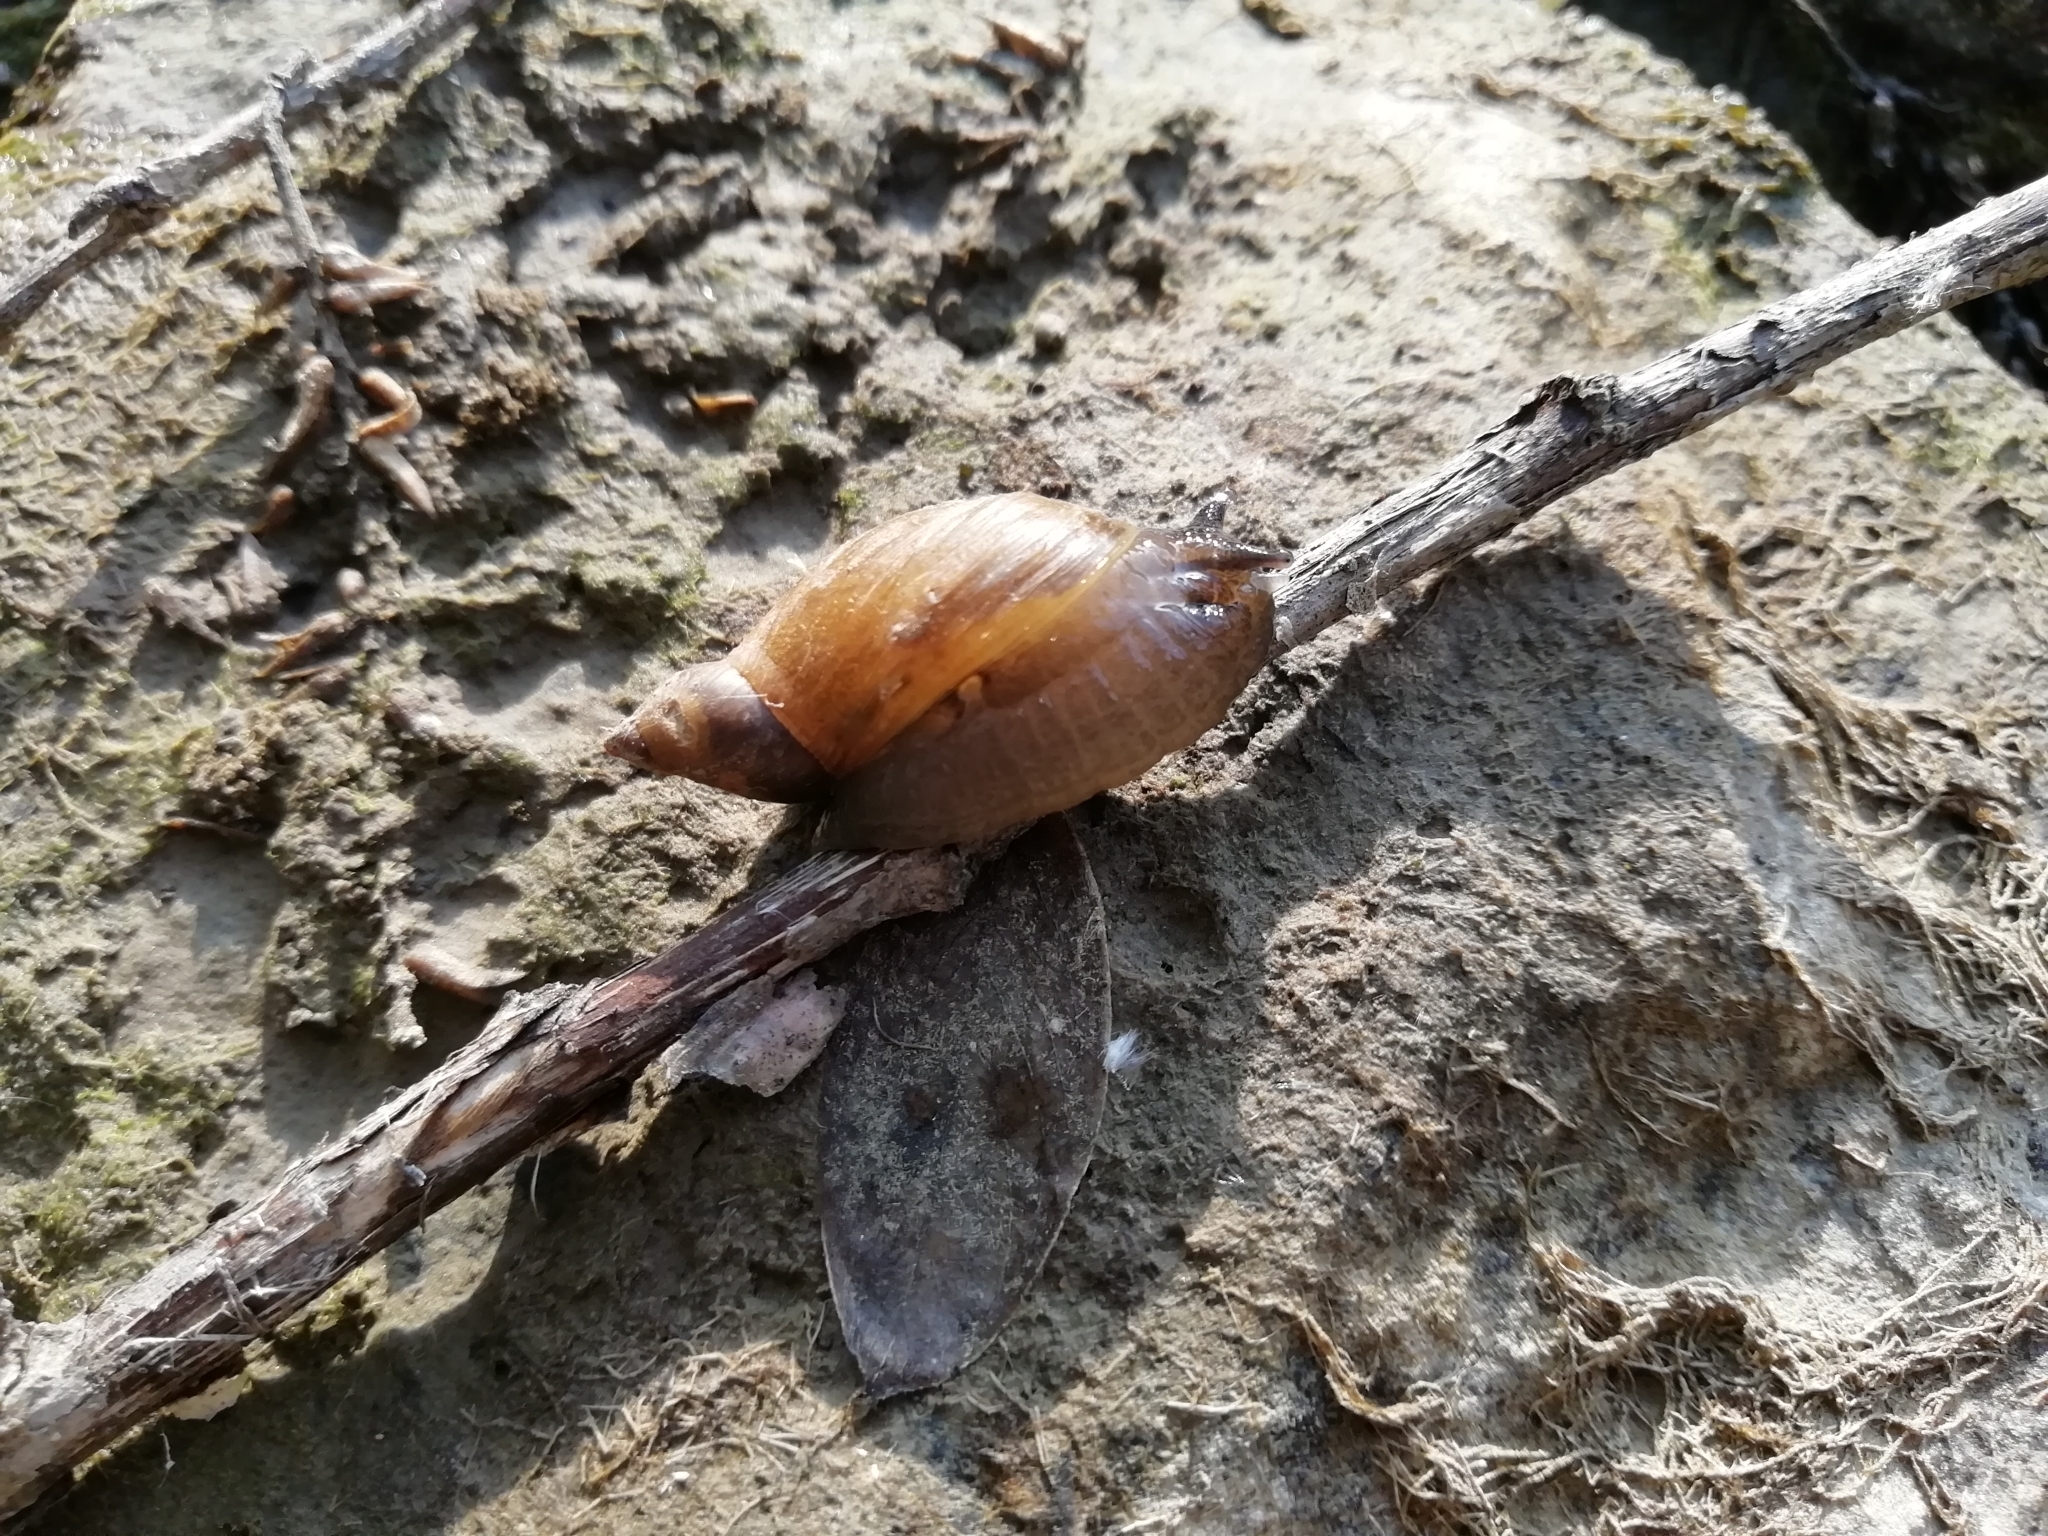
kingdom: Animalia
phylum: Mollusca
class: Gastropoda
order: Stylommatophora
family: Succineidae
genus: Succinea
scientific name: Succinea putris
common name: European ambersnail
